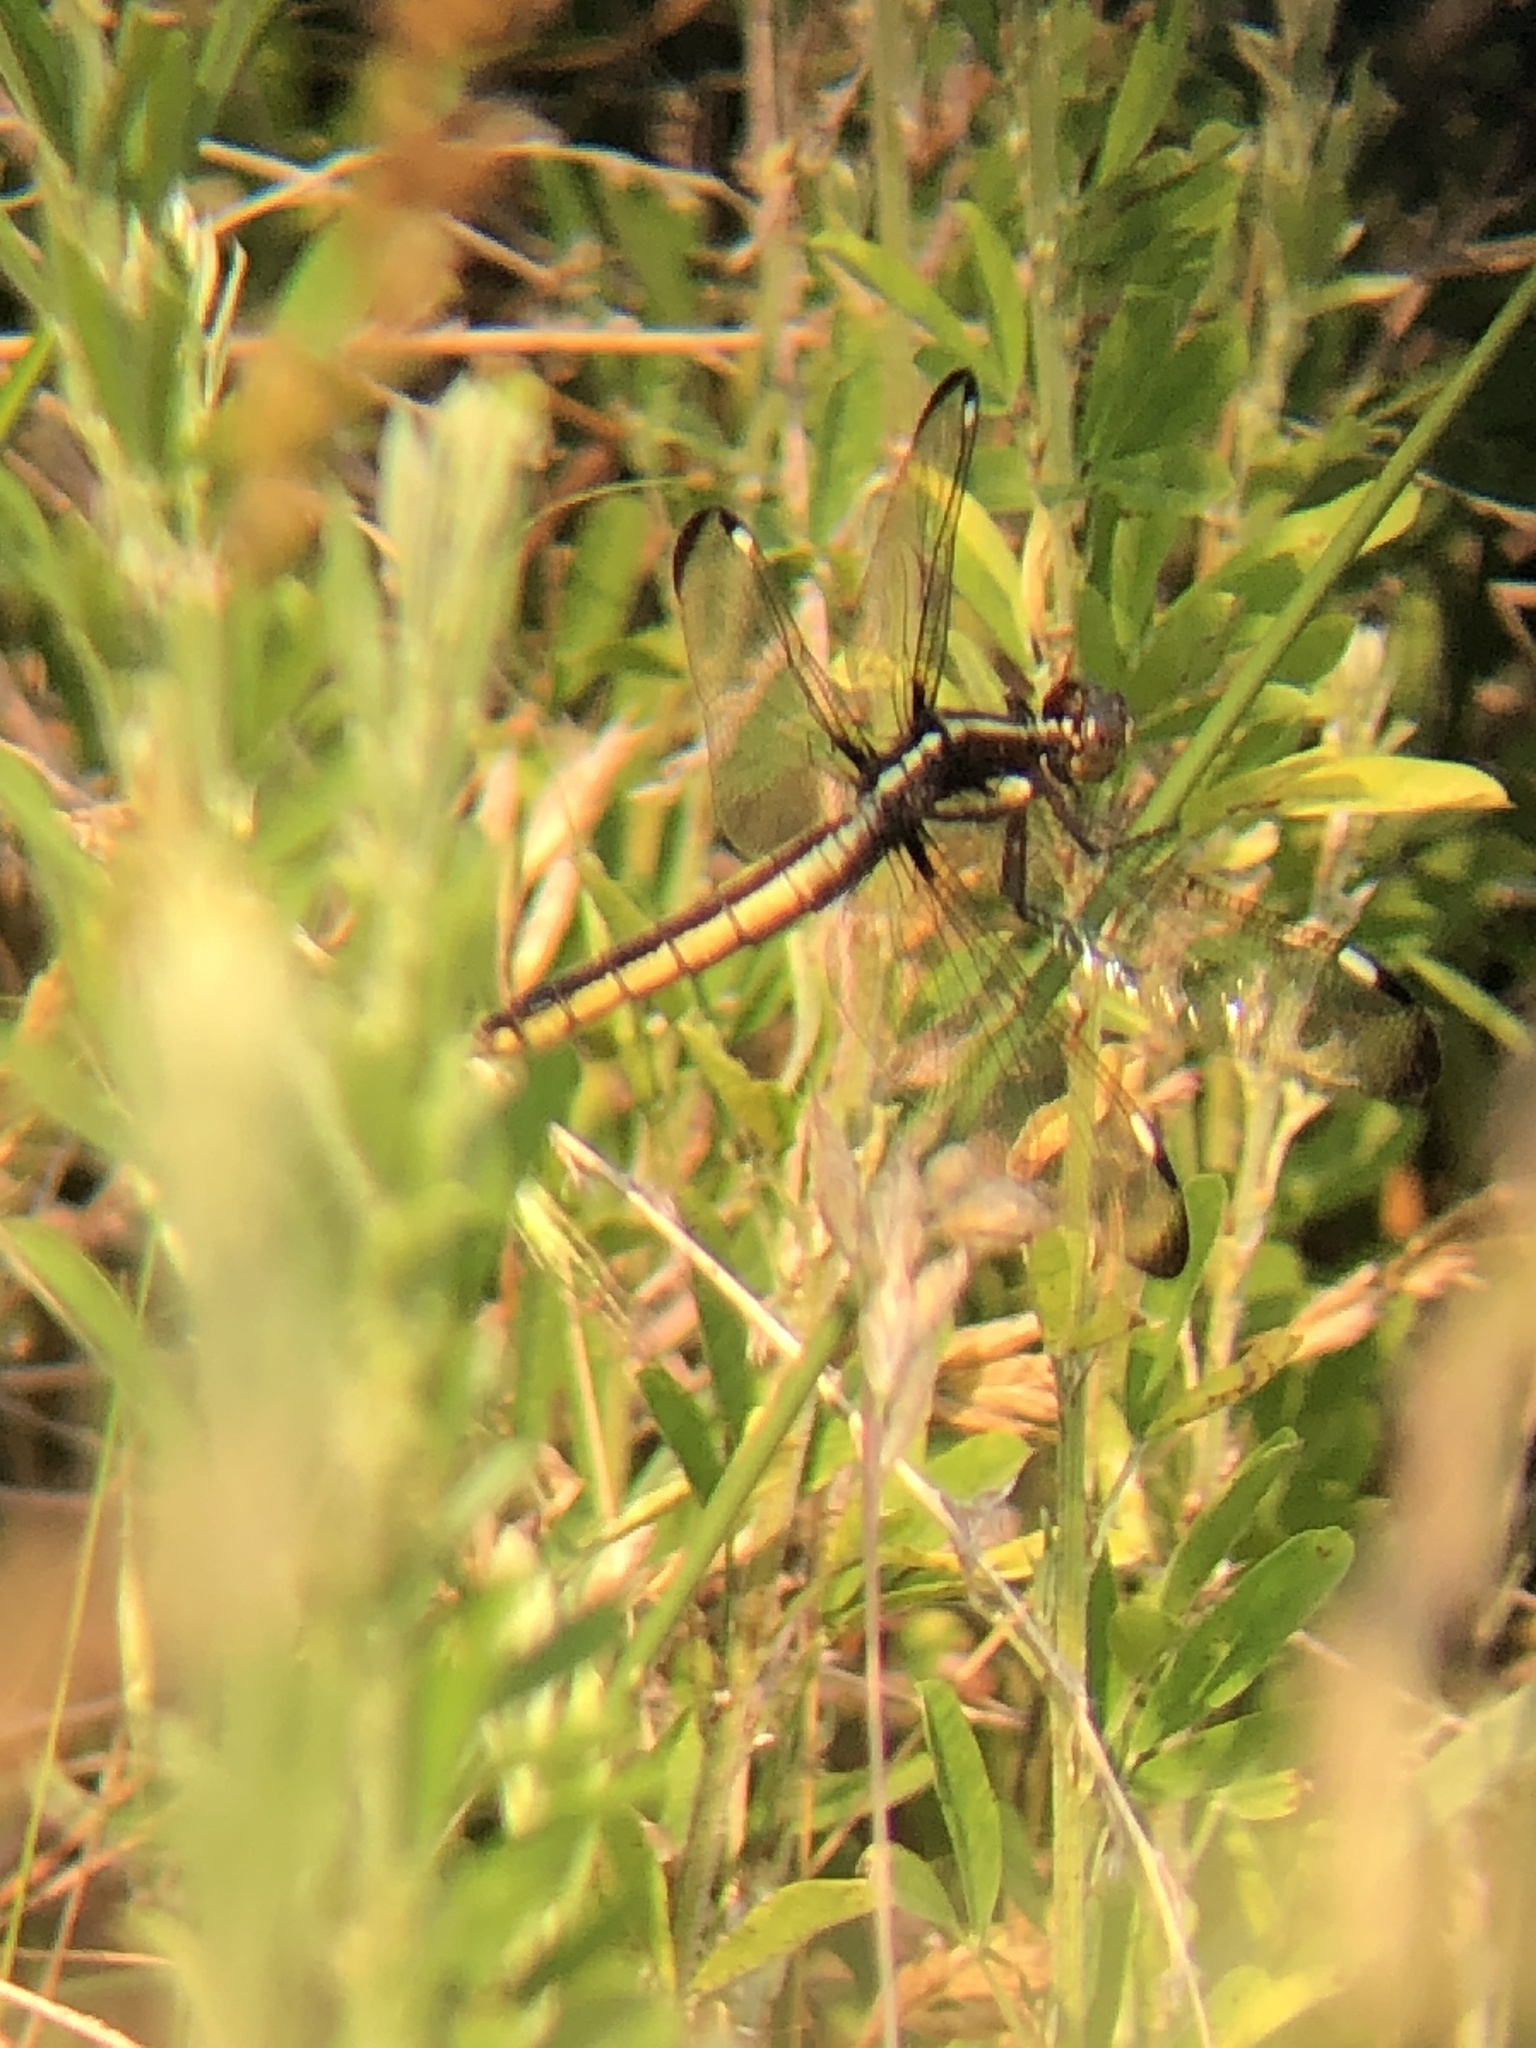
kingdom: Animalia
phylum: Arthropoda
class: Insecta
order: Odonata
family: Libellulidae
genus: Libellula
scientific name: Libellula cyanea
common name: Spangled skimmer
